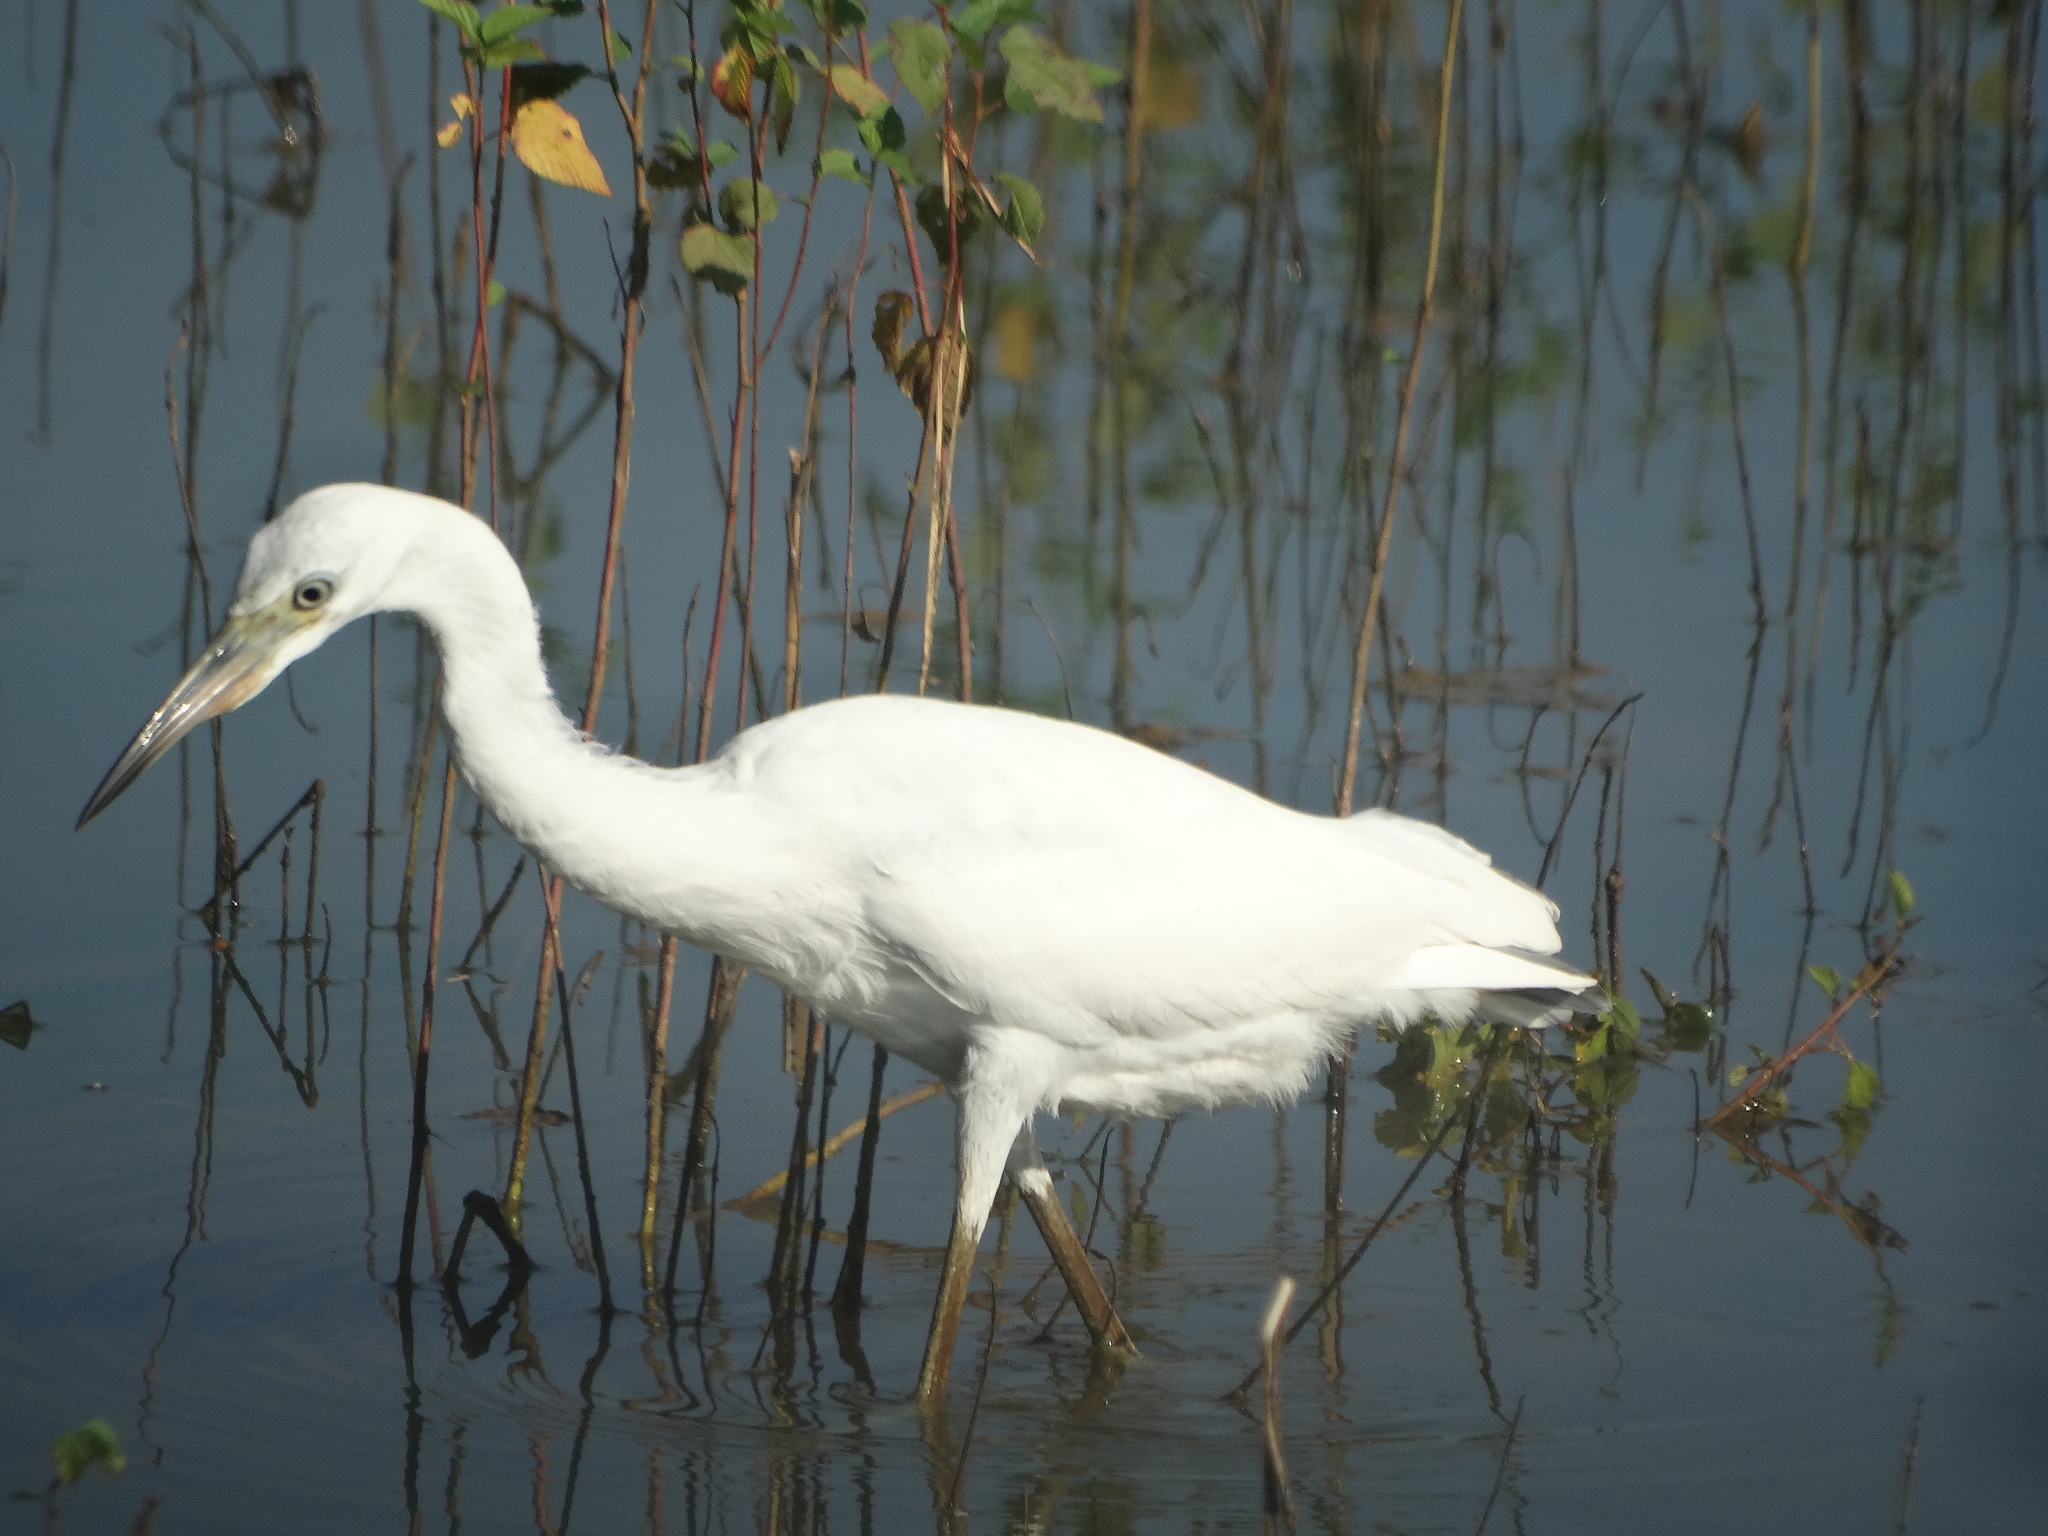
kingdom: Animalia
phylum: Chordata
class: Aves
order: Pelecaniformes
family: Ardeidae
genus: Egretta
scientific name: Egretta caerulea
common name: Little blue heron
